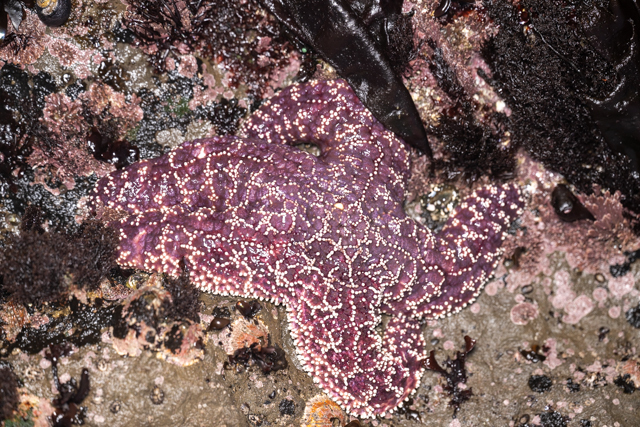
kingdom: Animalia
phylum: Echinodermata
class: Asteroidea
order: Forcipulatida
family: Asteriidae
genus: Pisaster
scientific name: Pisaster ochraceus
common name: Ochre stars
